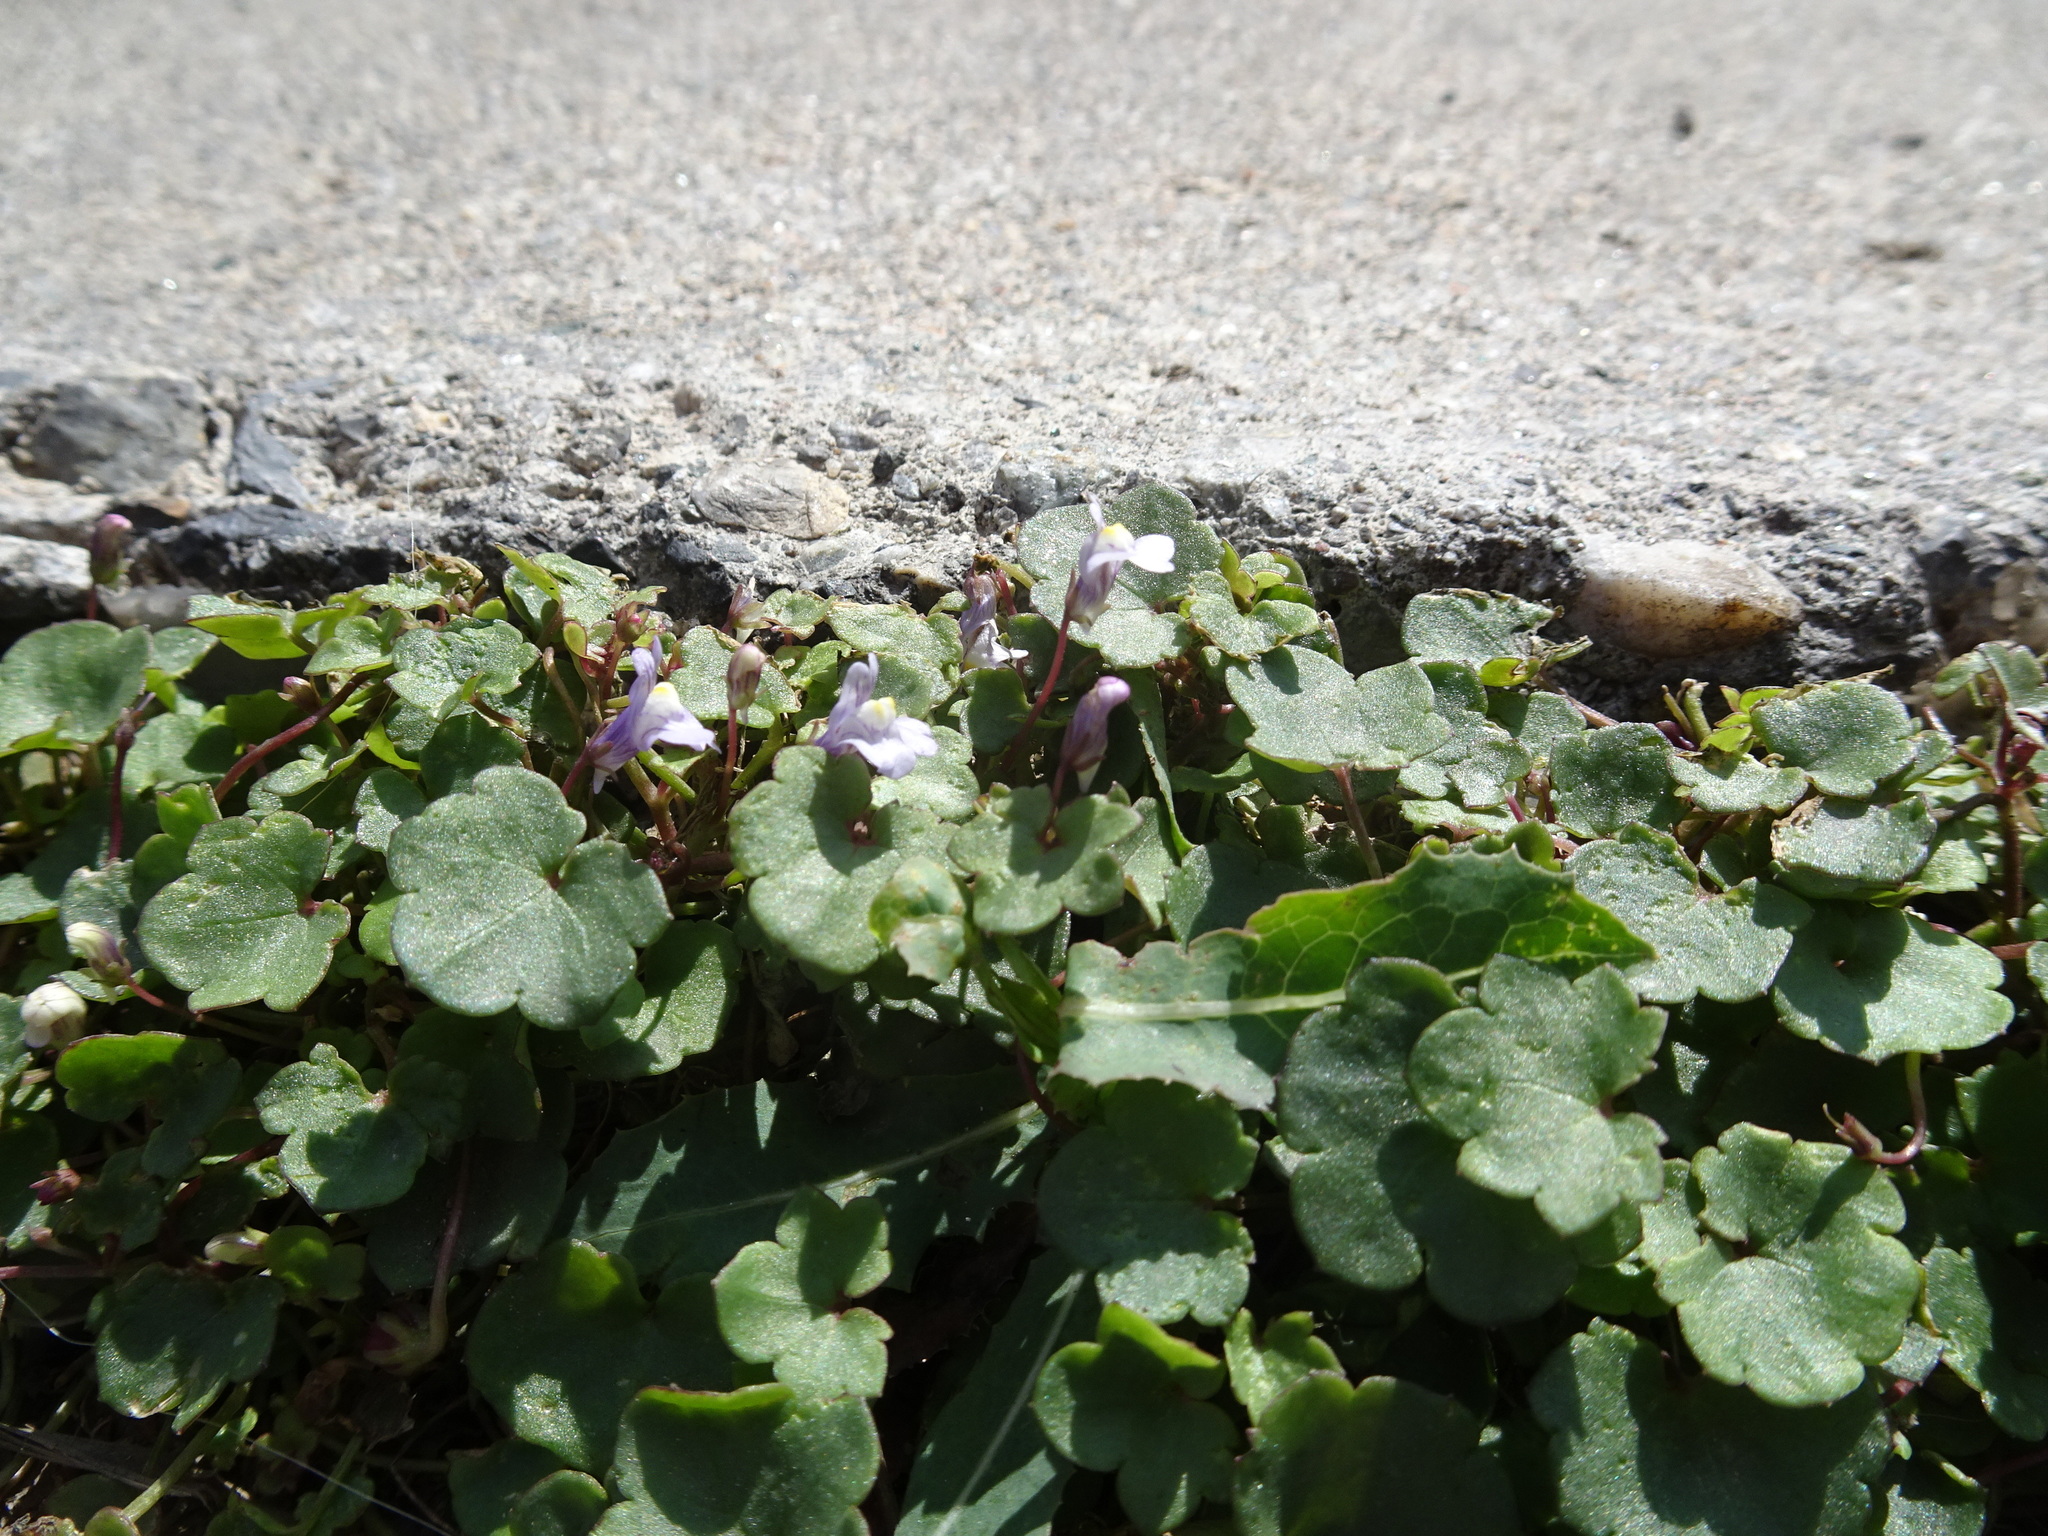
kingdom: Plantae
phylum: Tracheophyta
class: Magnoliopsida
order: Lamiales
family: Plantaginaceae
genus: Cymbalaria
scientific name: Cymbalaria muralis
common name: Ivy-leaved toadflax
